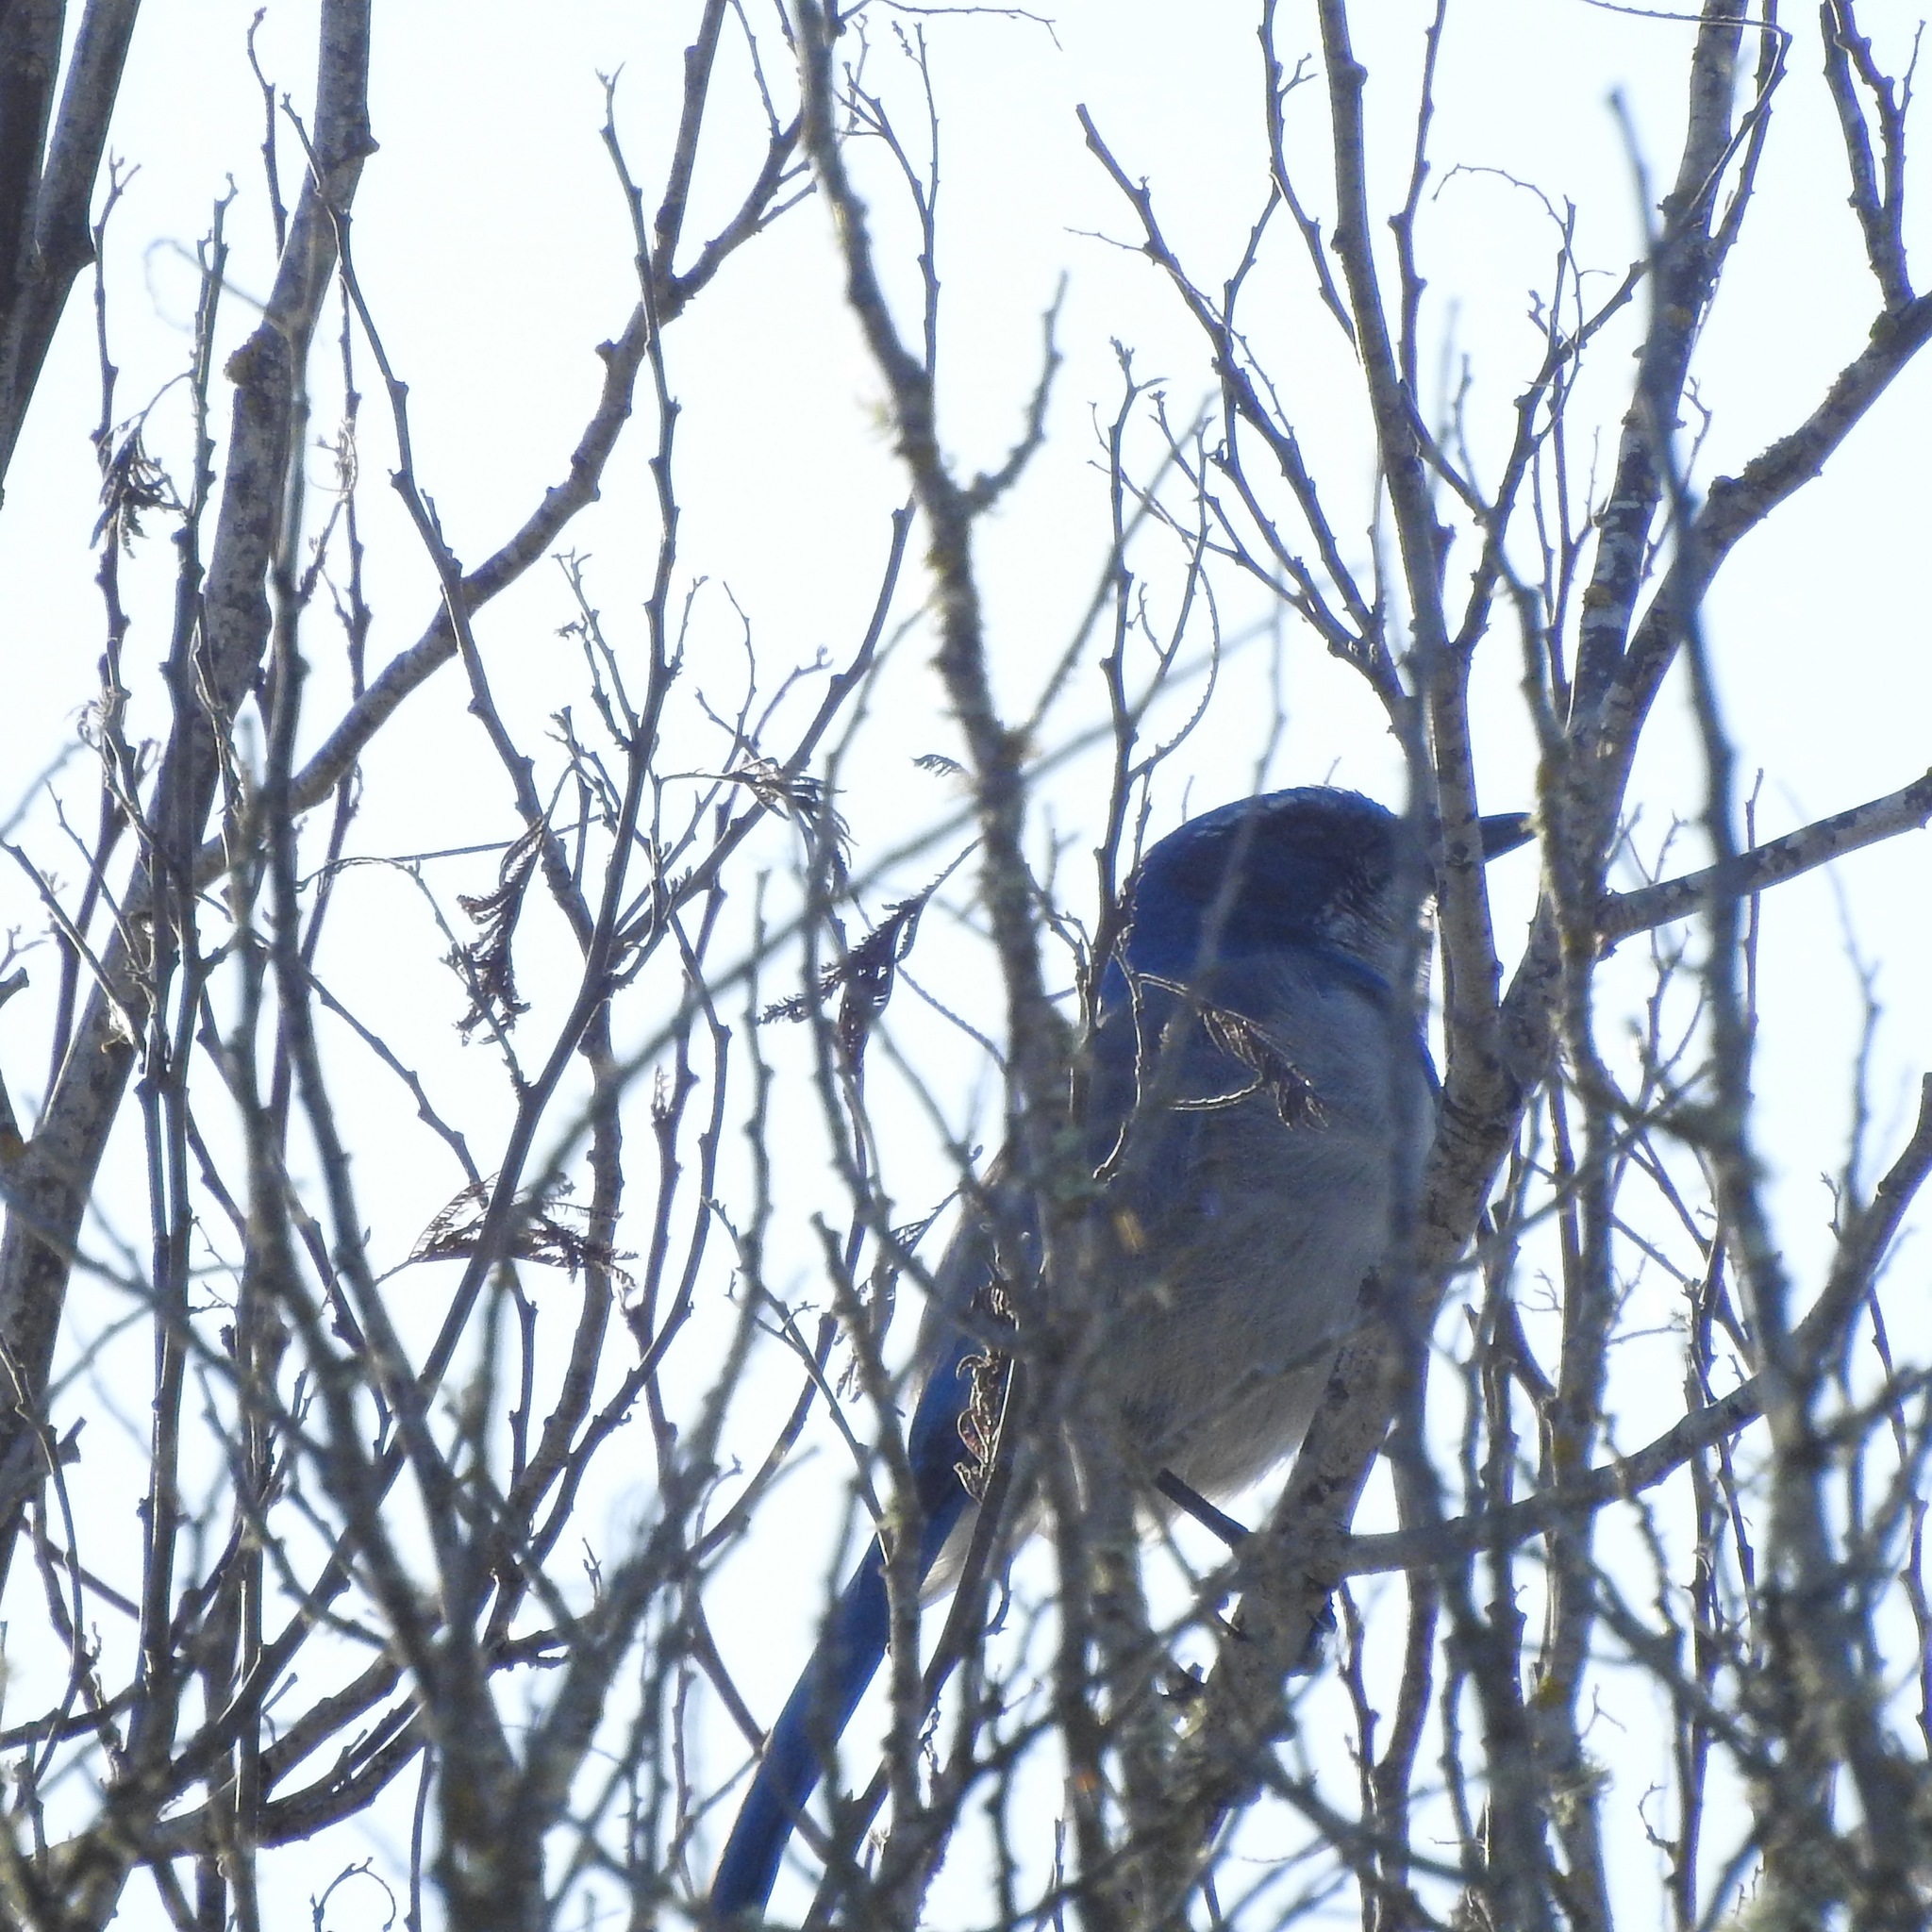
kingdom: Animalia
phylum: Chordata
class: Aves
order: Passeriformes
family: Corvidae
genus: Aphelocoma
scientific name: Aphelocoma californica
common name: California scrub-jay
